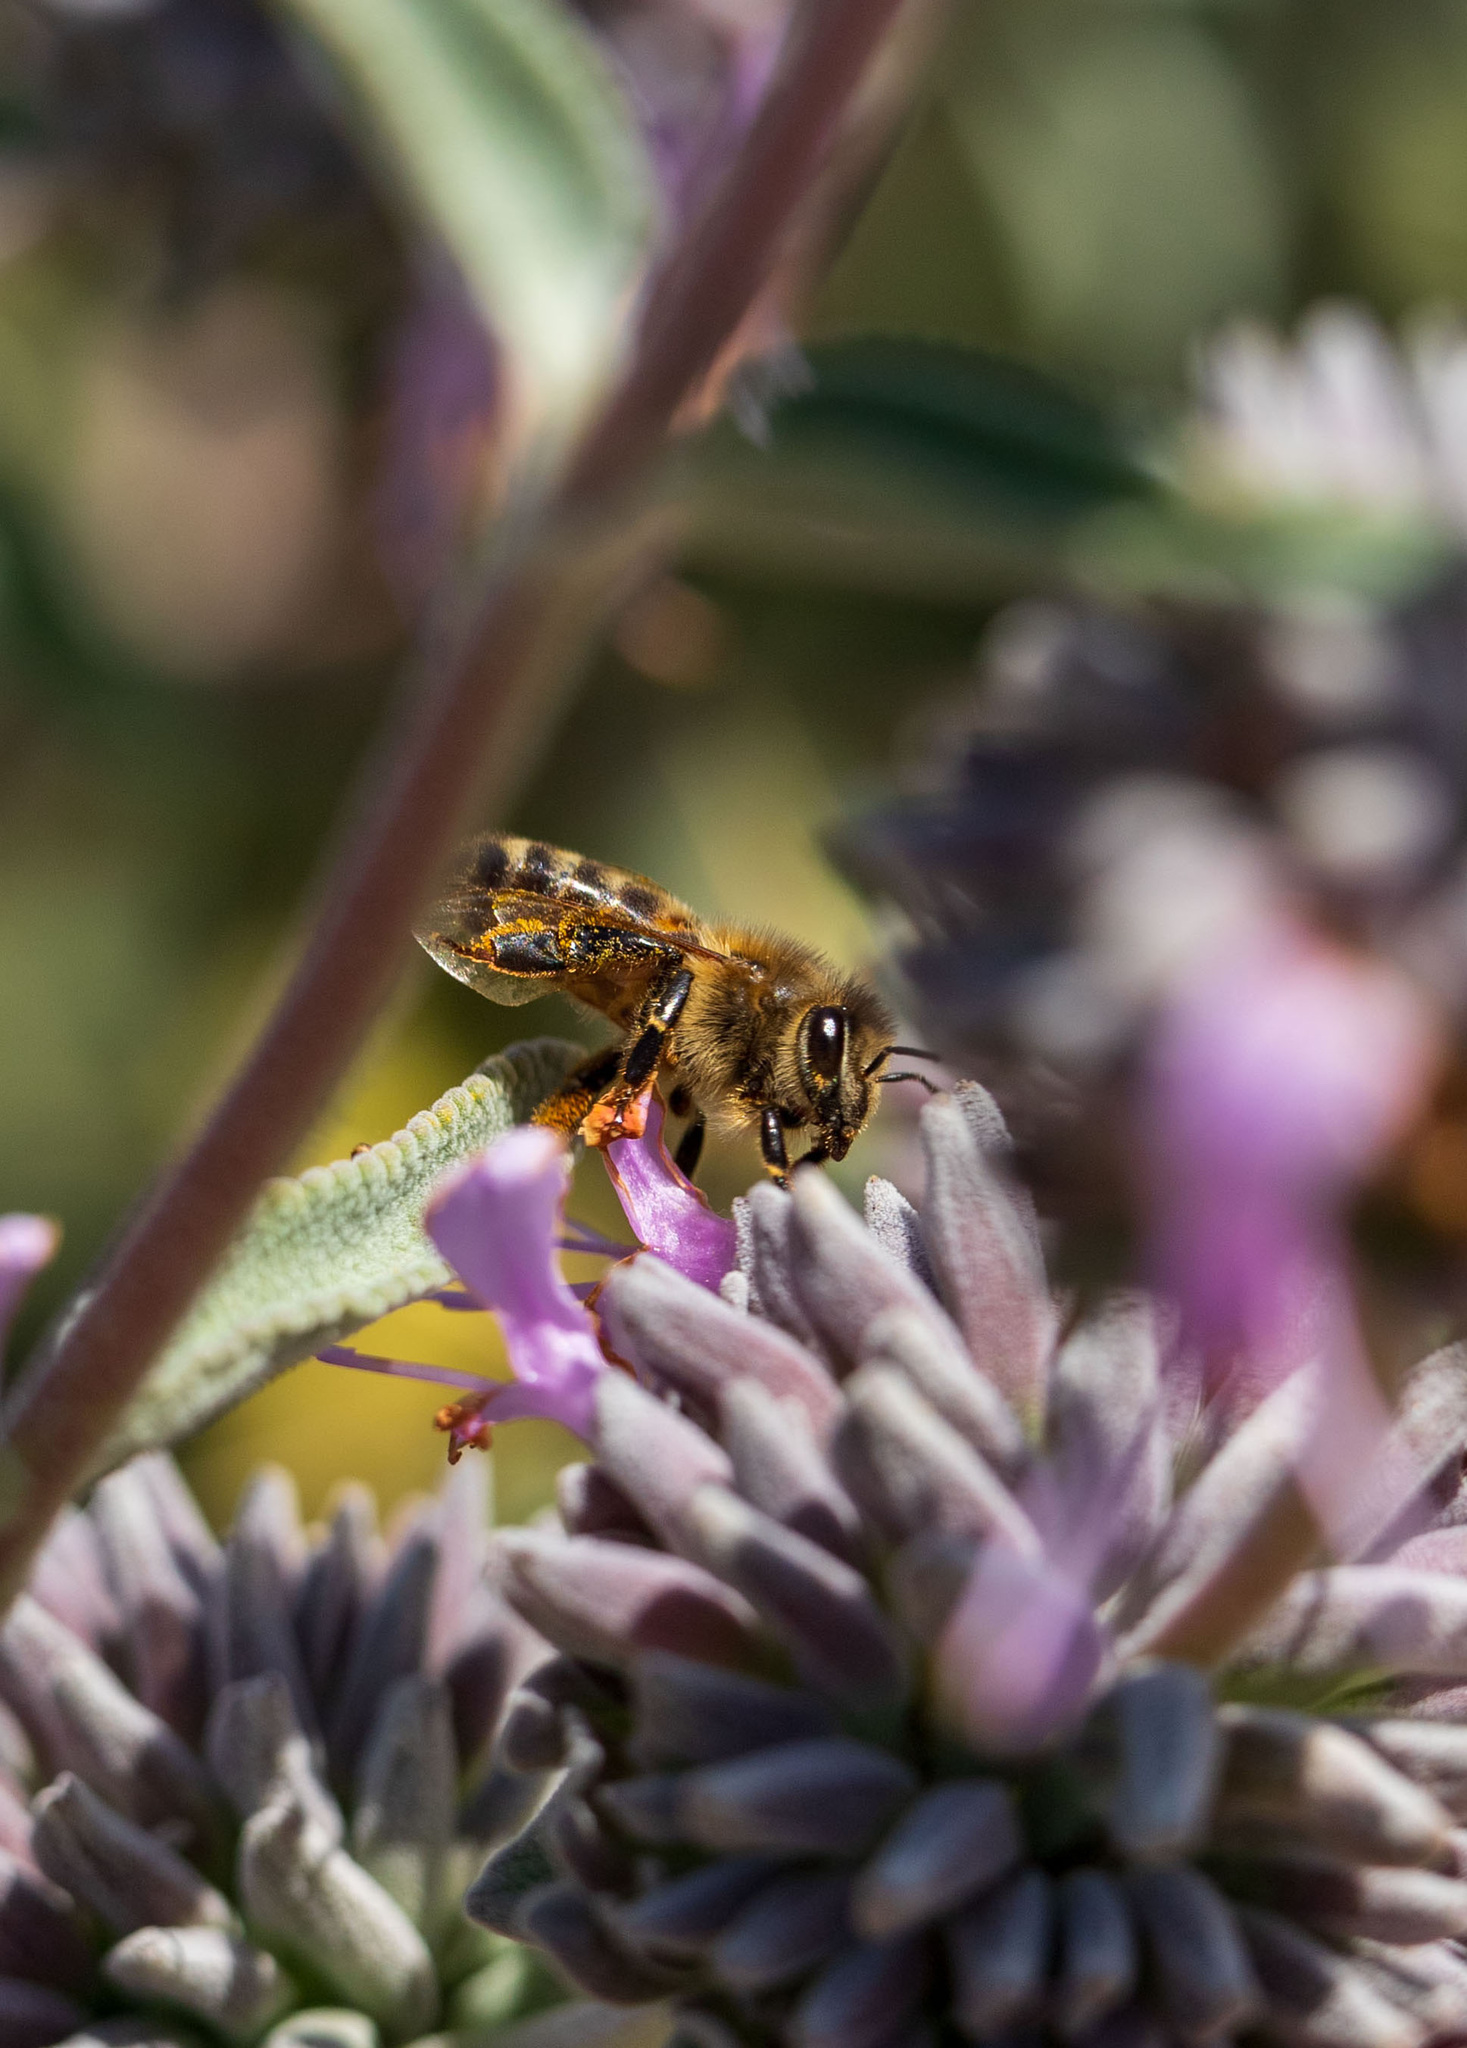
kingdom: Animalia
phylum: Arthropoda
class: Insecta
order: Hymenoptera
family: Apidae
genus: Apis
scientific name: Apis mellifera
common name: Honey bee
